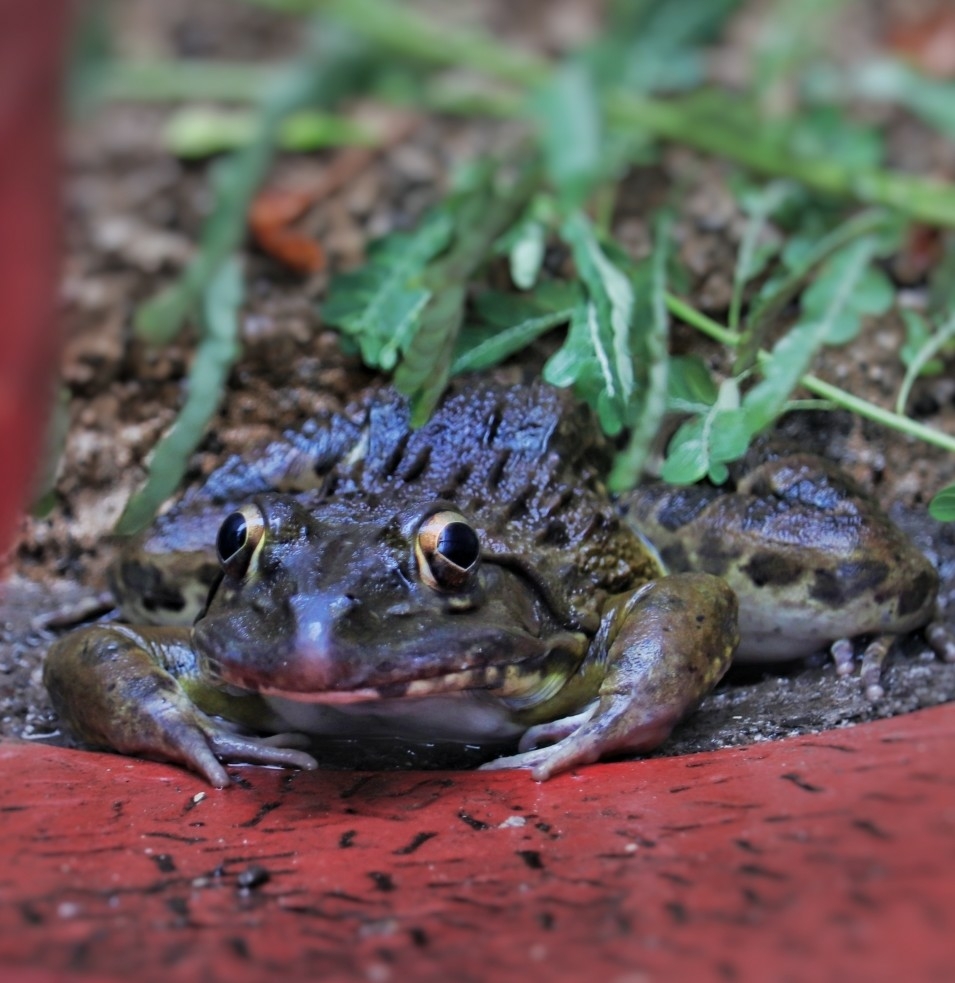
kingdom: Animalia
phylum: Chordata
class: Amphibia
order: Anura
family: Dicroglossidae
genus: Hoplobatrachus
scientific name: Hoplobatrachus tigerinus
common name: Indian bullfrog
